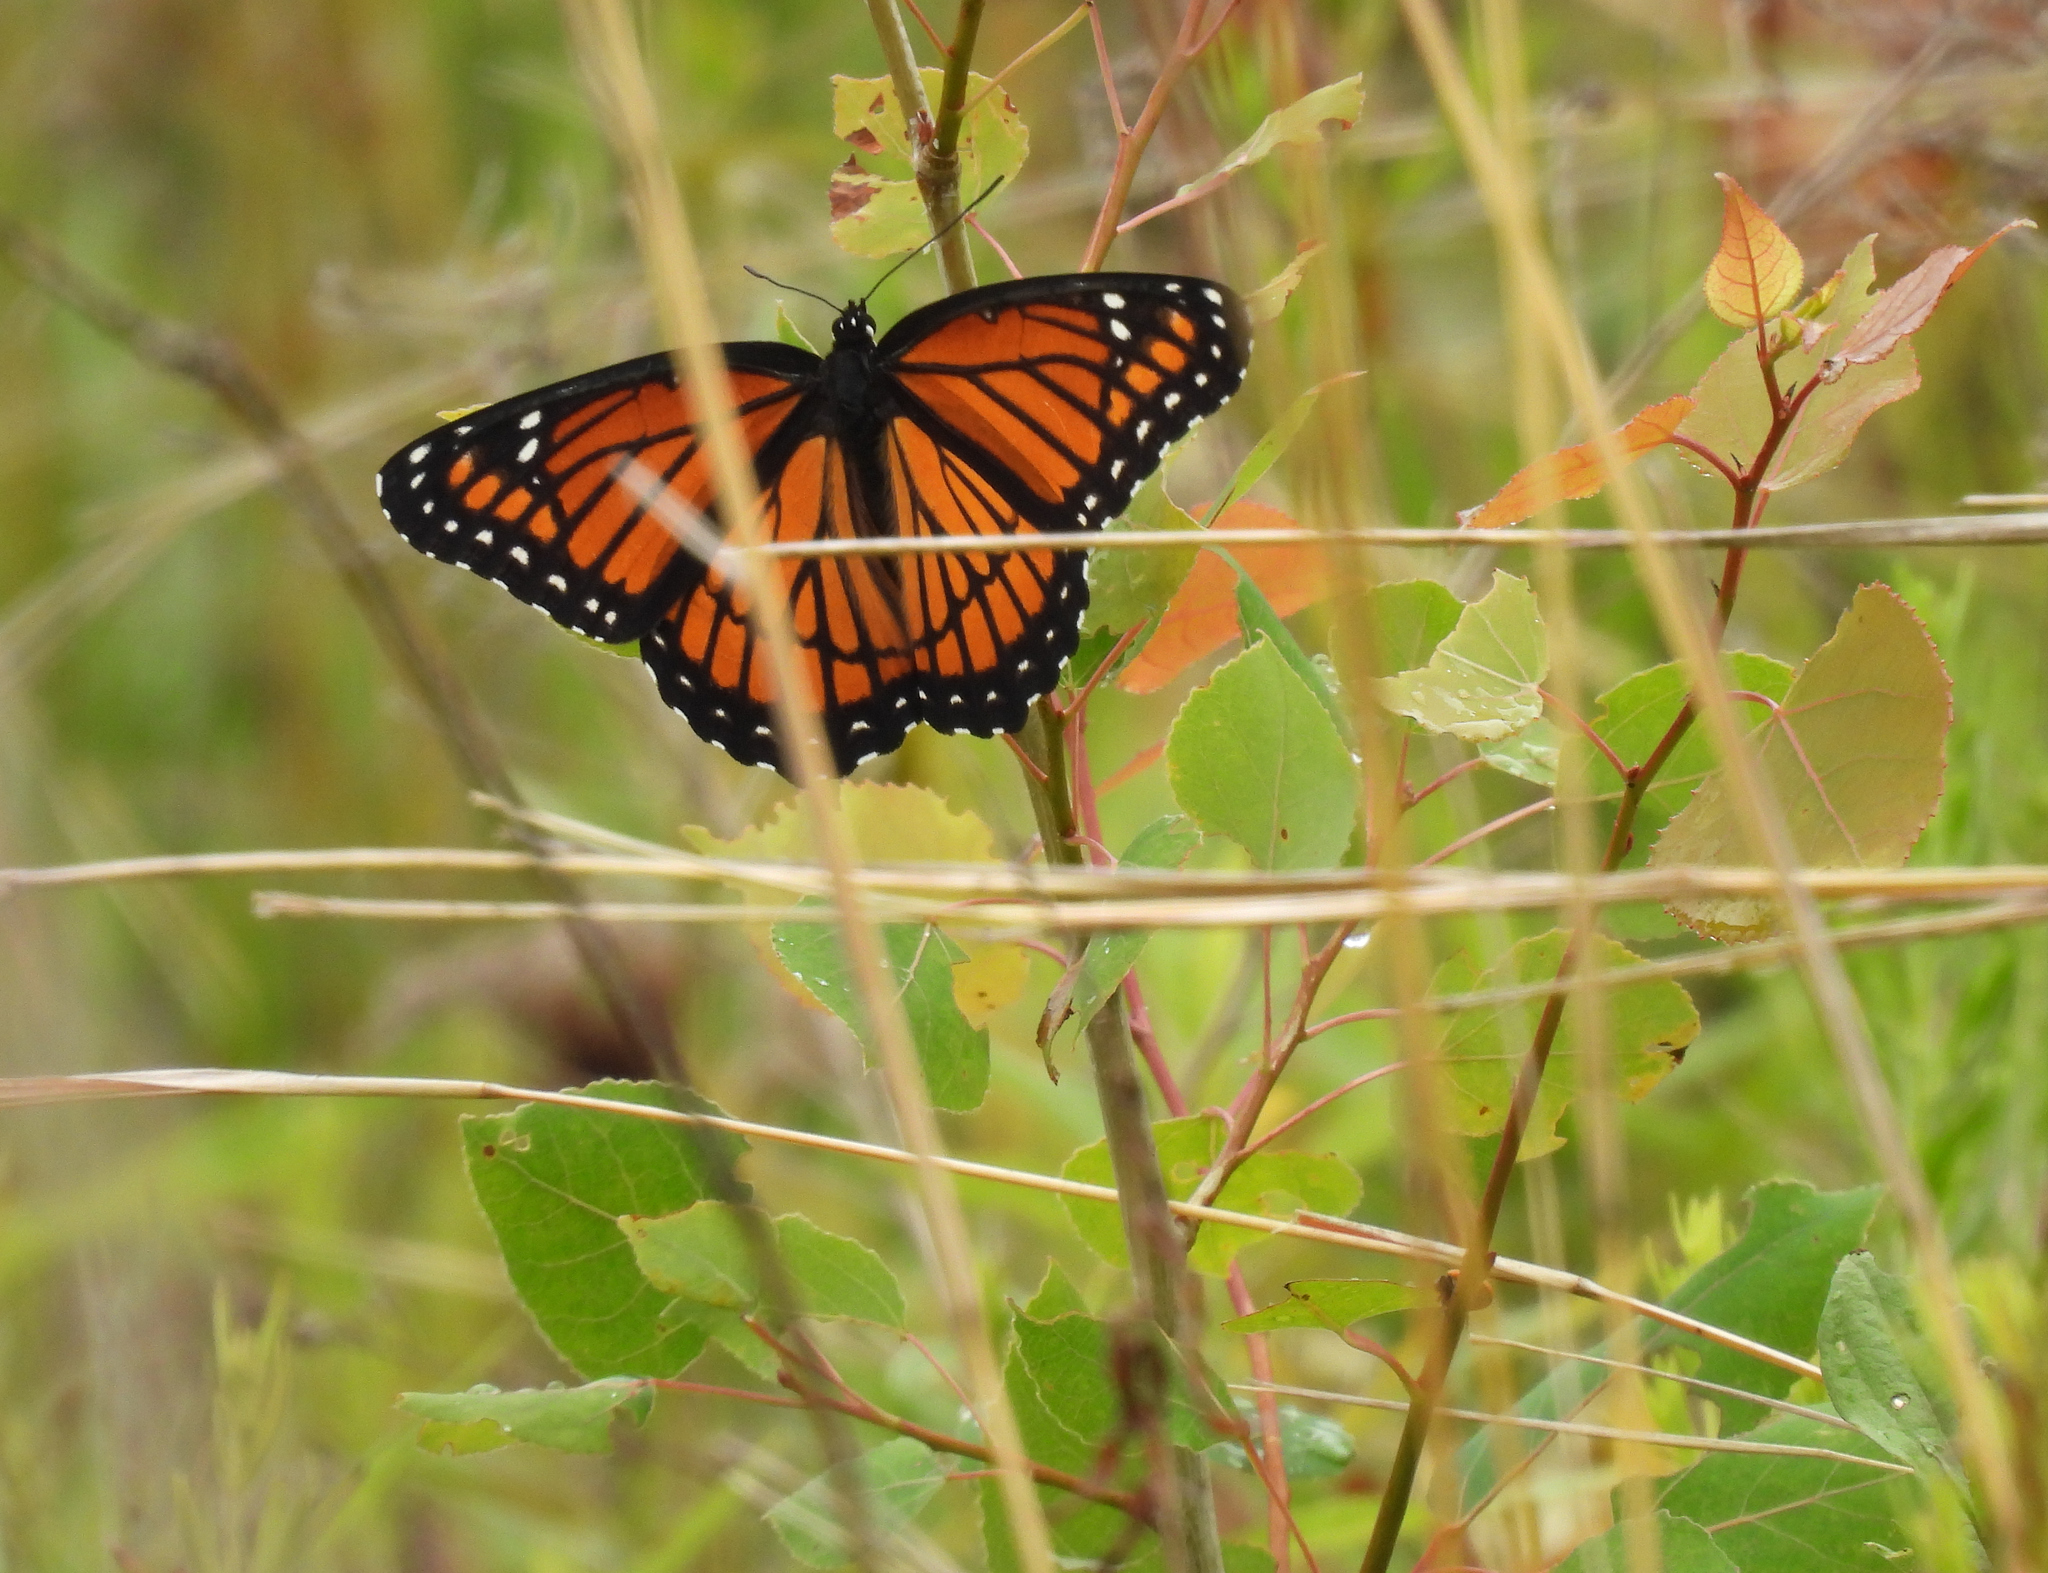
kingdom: Animalia
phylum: Arthropoda
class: Insecta
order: Lepidoptera
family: Nymphalidae
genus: Limenitis
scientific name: Limenitis archippus
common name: Viceroy
